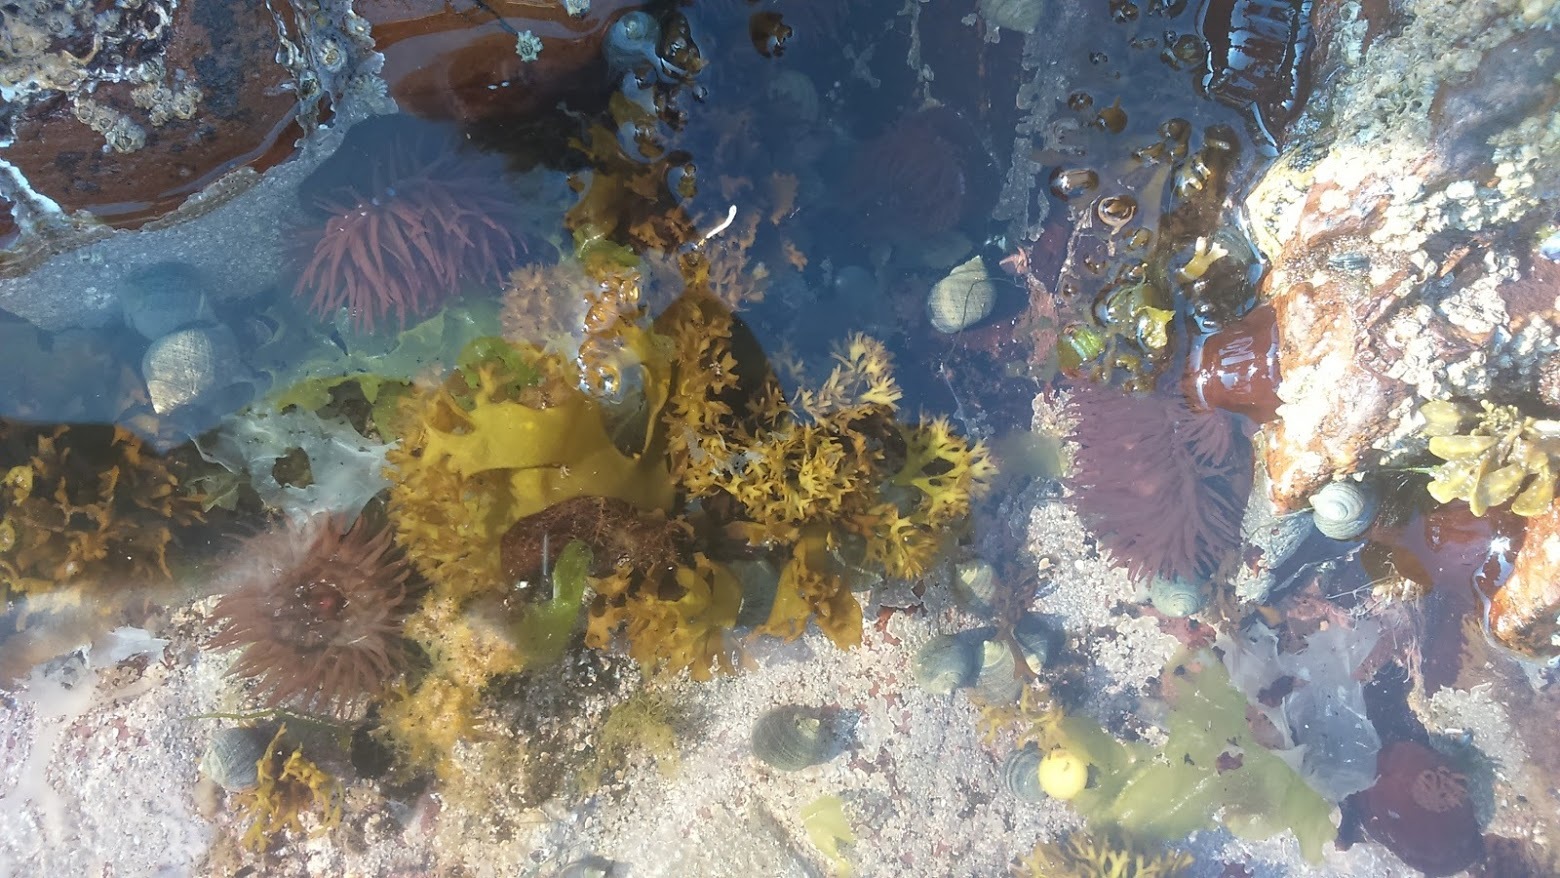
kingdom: Animalia
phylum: Cnidaria
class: Anthozoa
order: Actiniaria
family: Actiniidae
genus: Actinia
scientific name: Actinia equina
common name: Beadlet anemone
